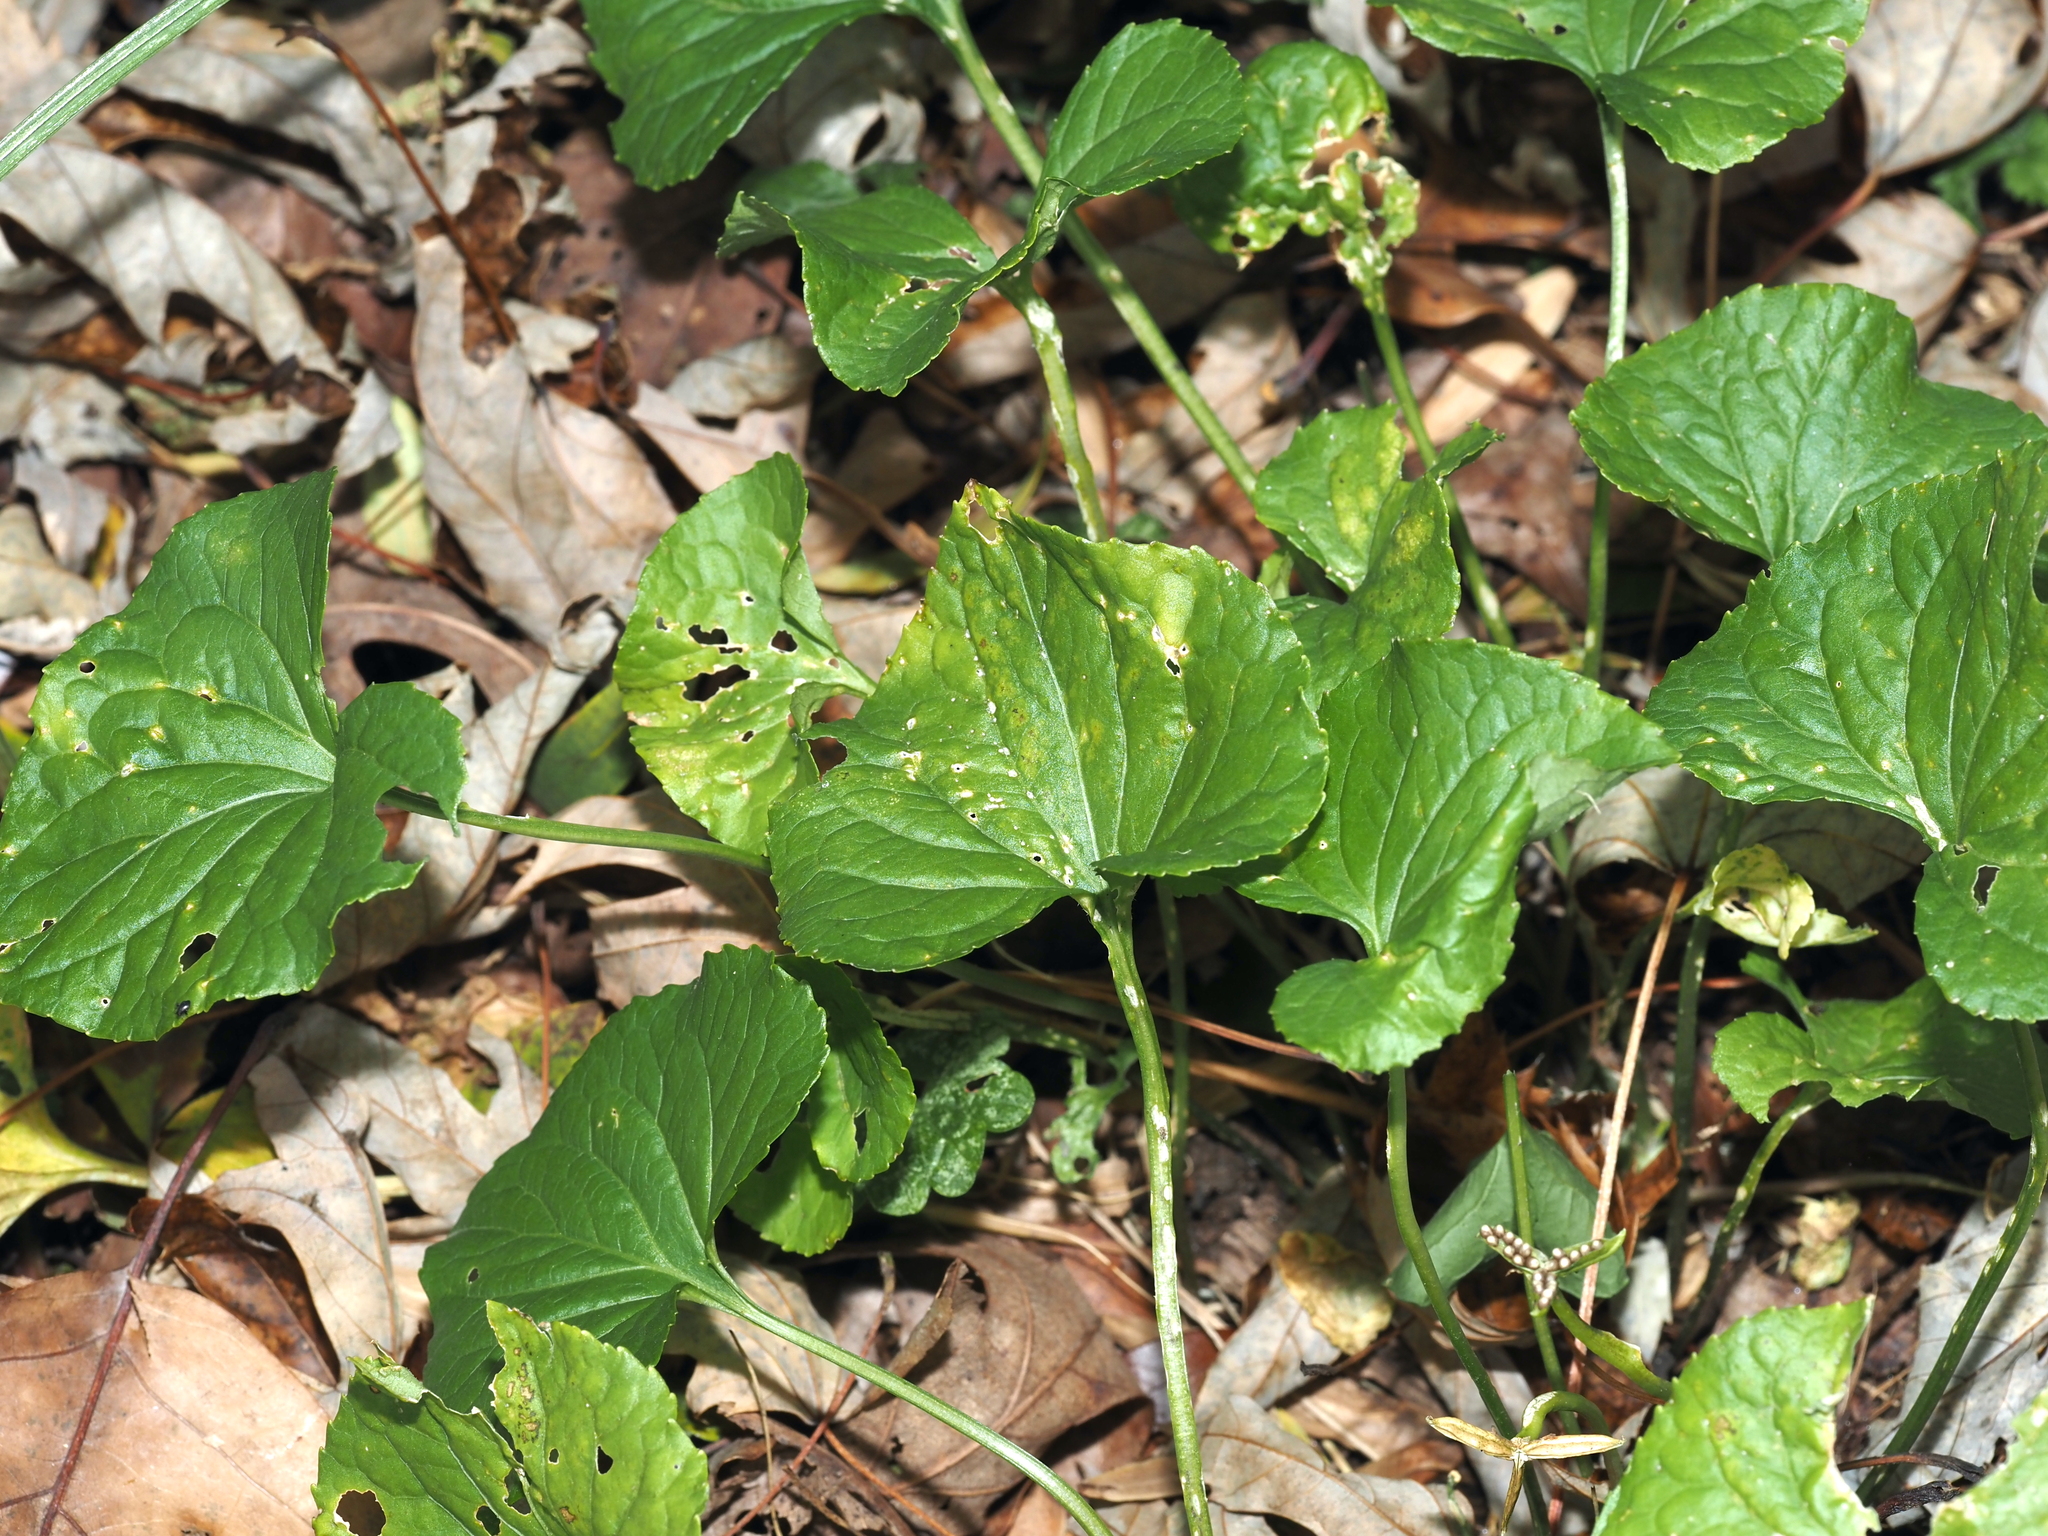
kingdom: Plantae
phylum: Tracheophyta
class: Magnoliopsida
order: Malpighiales
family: Violaceae
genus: Viola
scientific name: Viola sororia
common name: Dooryard violet
